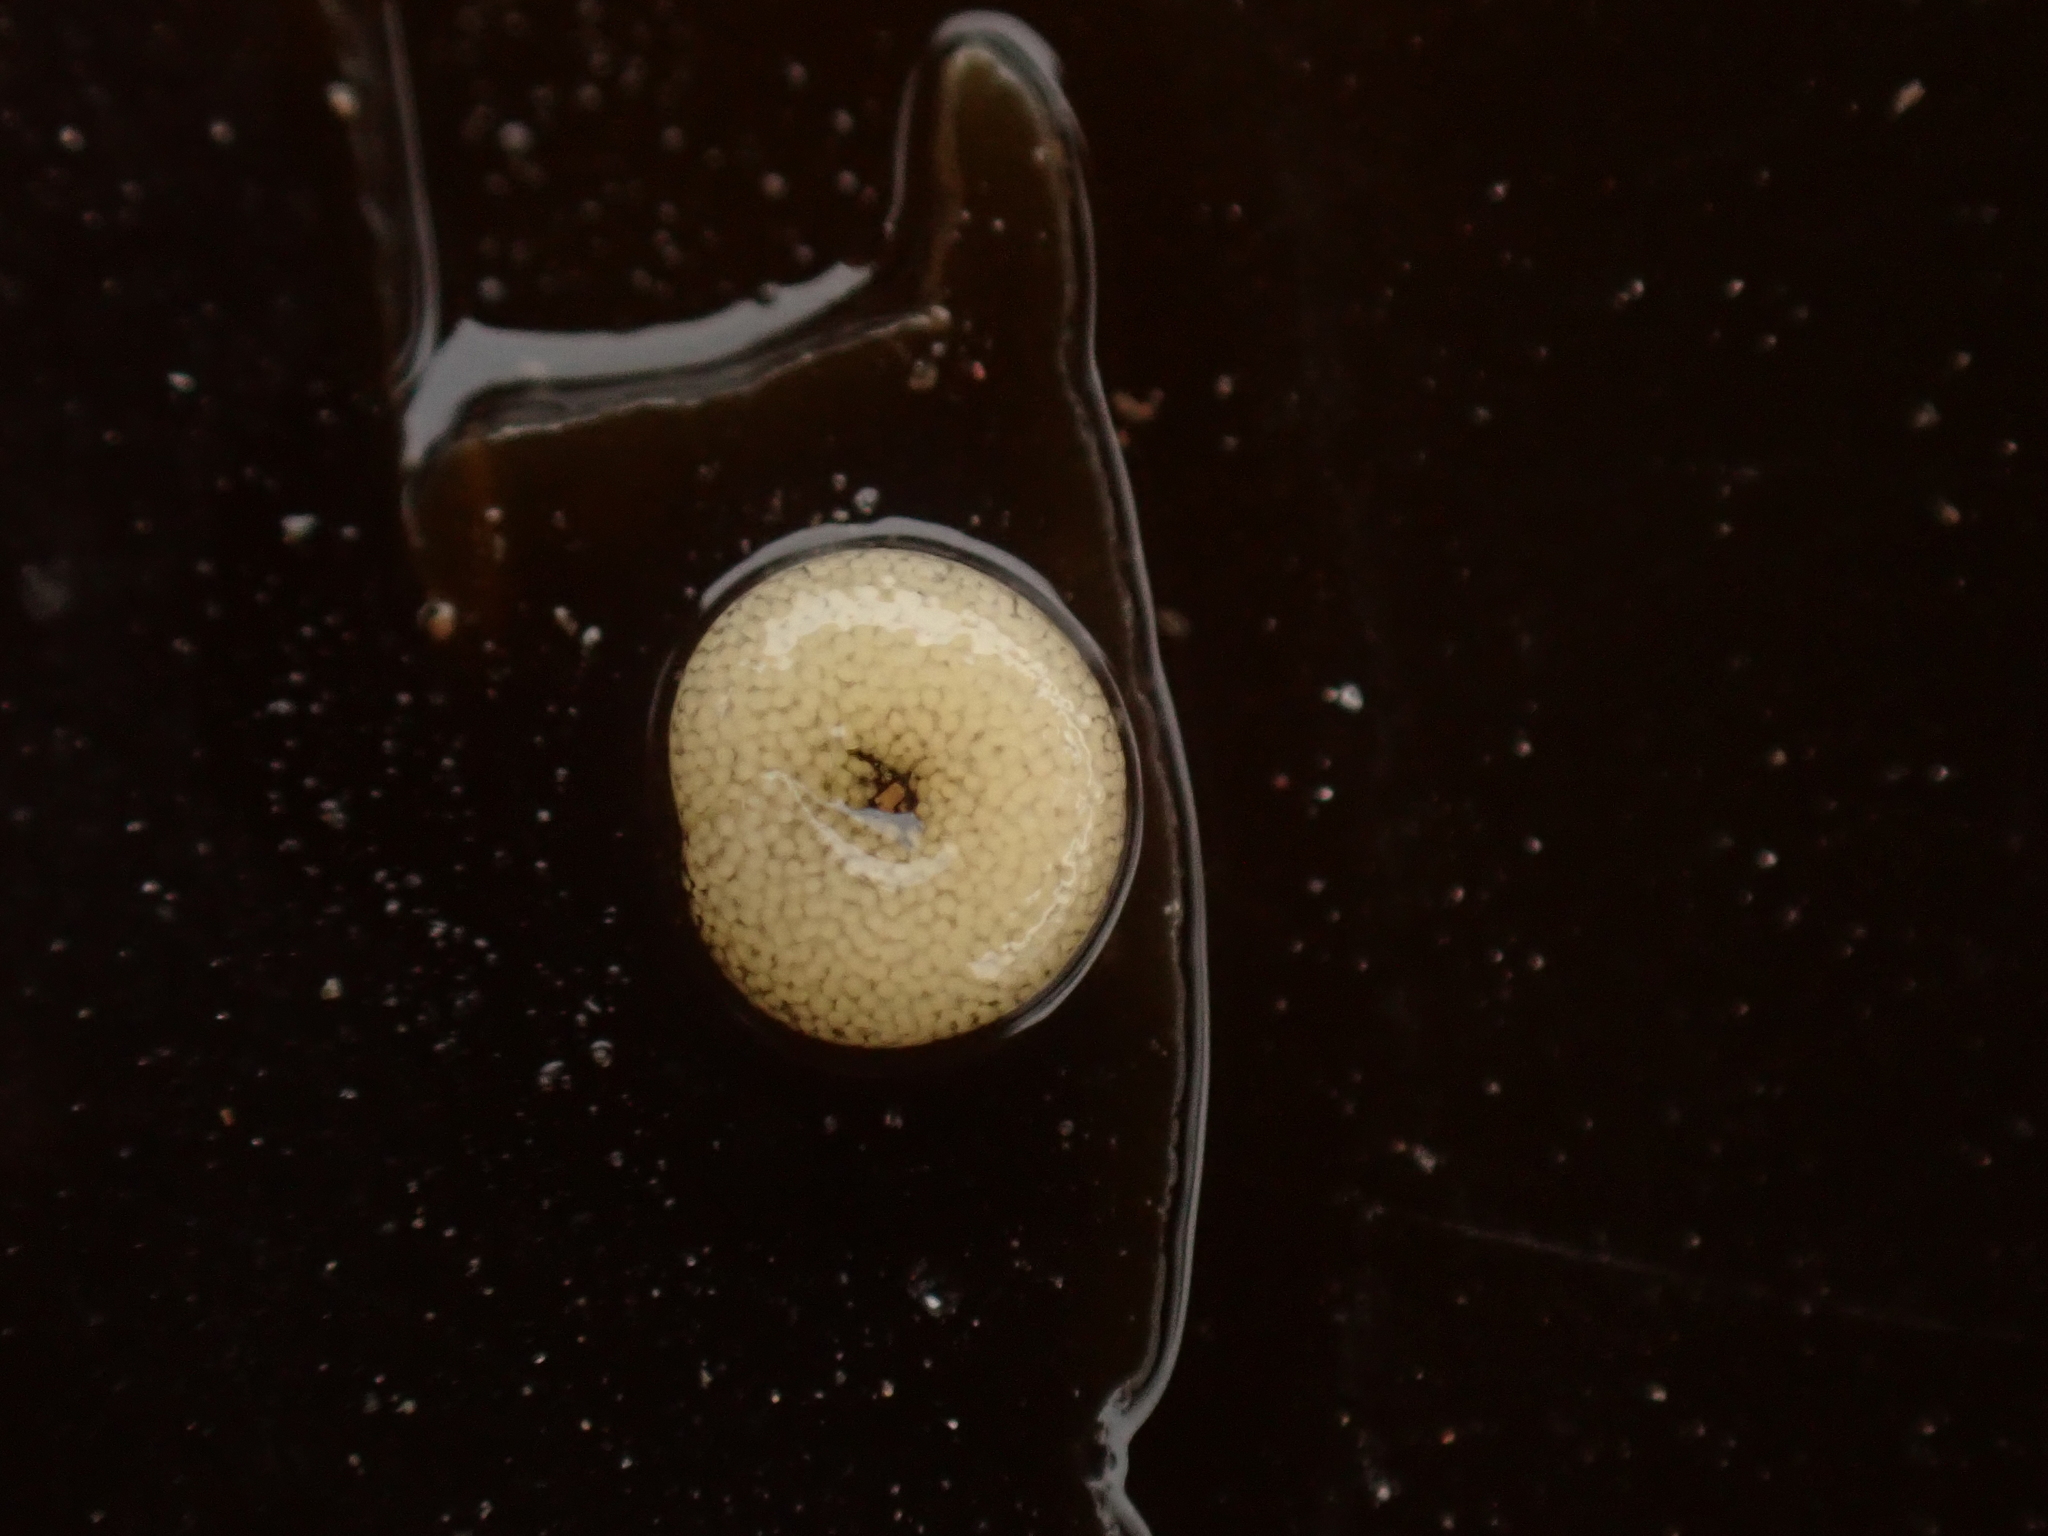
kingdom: Animalia
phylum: Mollusca
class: Gastropoda
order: Littorinimorpha
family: Littorinidae
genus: Lacuna
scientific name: Lacuna vincta
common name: Banded chink shell
